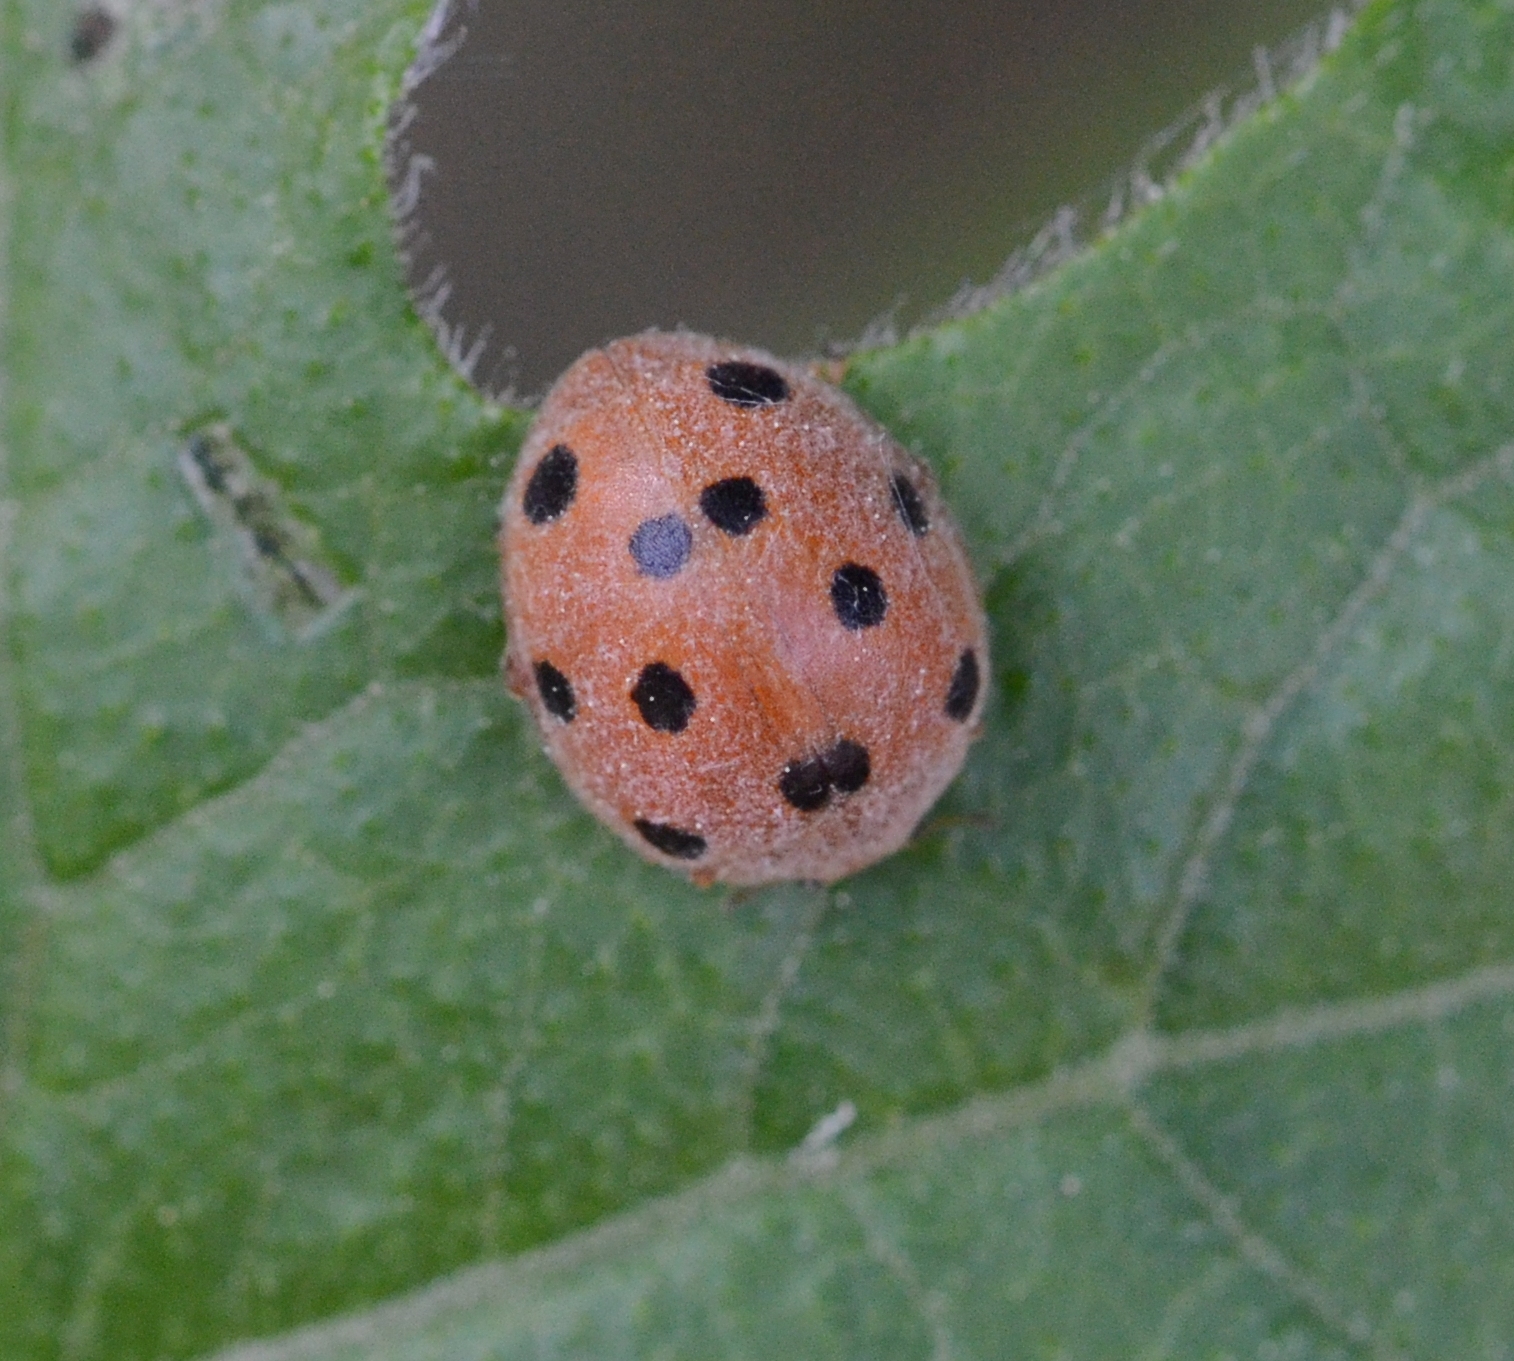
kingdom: Animalia
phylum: Arthropoda
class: Insecta
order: Coleoptera
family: Coccinellidae
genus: Henosepilachna
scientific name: Henosepilachna argus
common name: Bryony ladybird
